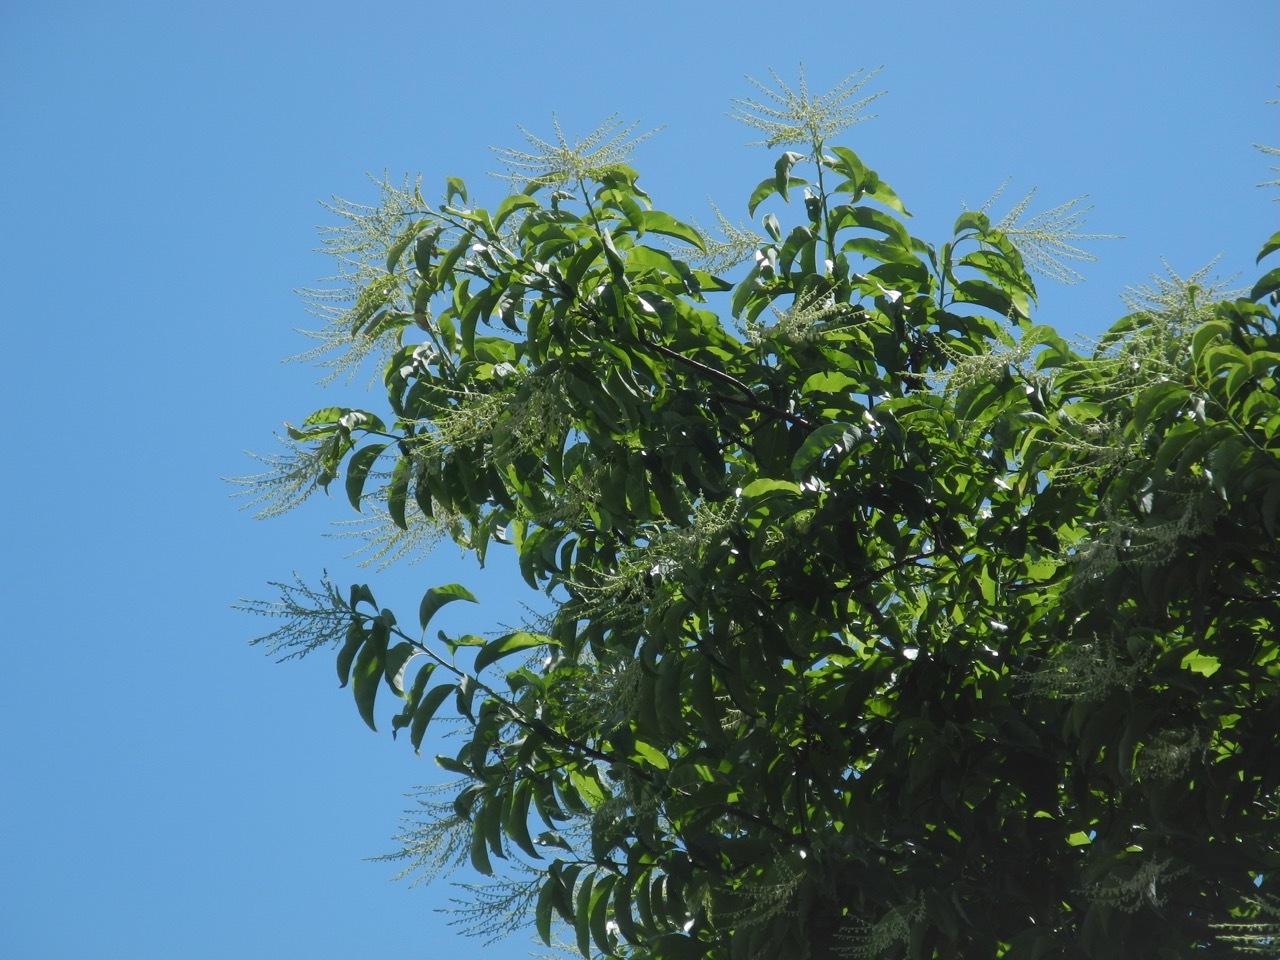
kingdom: Plantae
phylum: Tracheophyta
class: Magnoliopsida
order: Ericales
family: Ericaceae
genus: Oxydendrum
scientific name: Oxydendrum arboreum
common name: Sourwood
